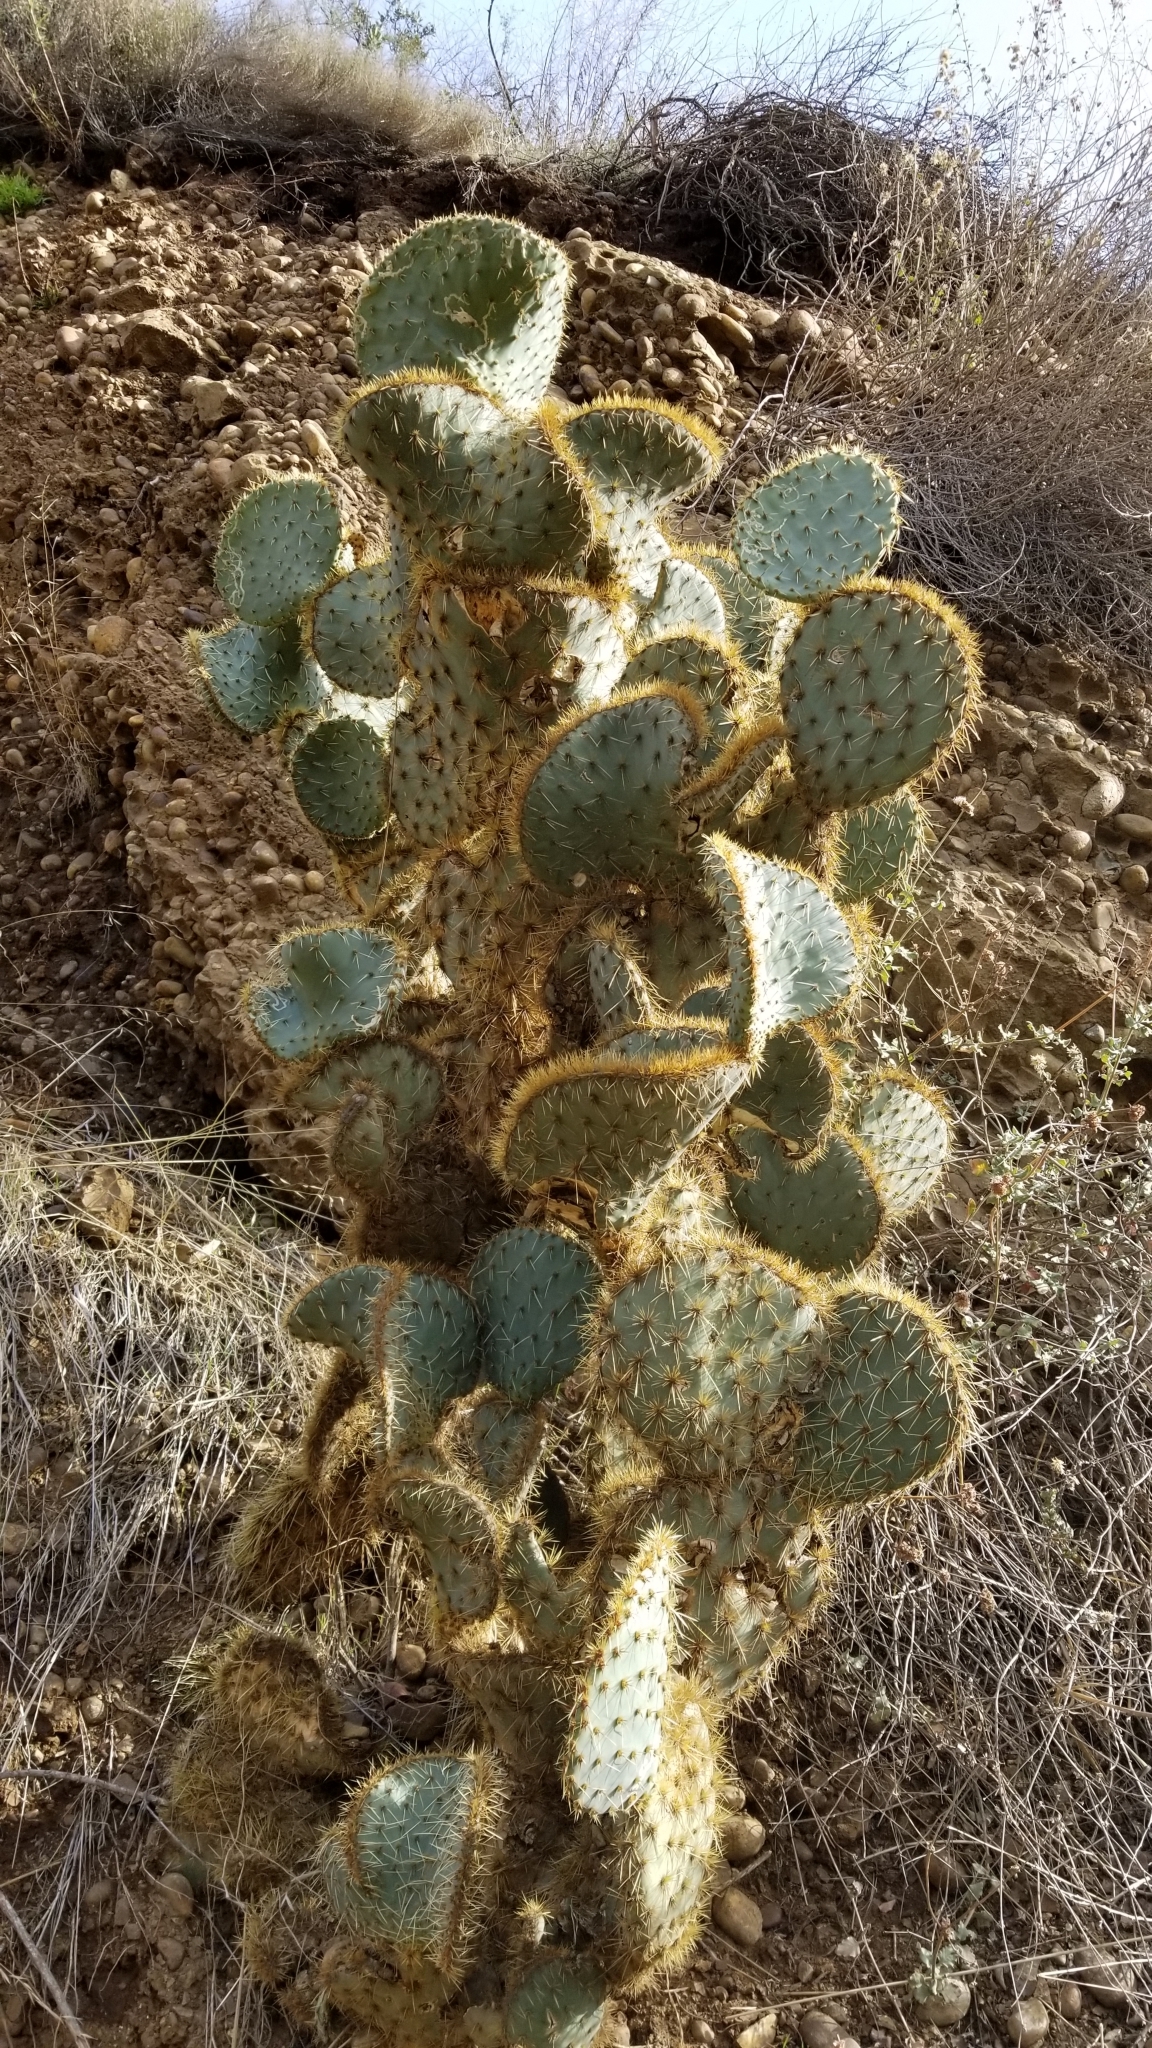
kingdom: Plantae
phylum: Tracheophyta
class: Magnoliopsida
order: Caryophyllales
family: Cactaceae
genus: Opuntia
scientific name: Opuntia chlorotica
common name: Dollar-joint prickly-pear
